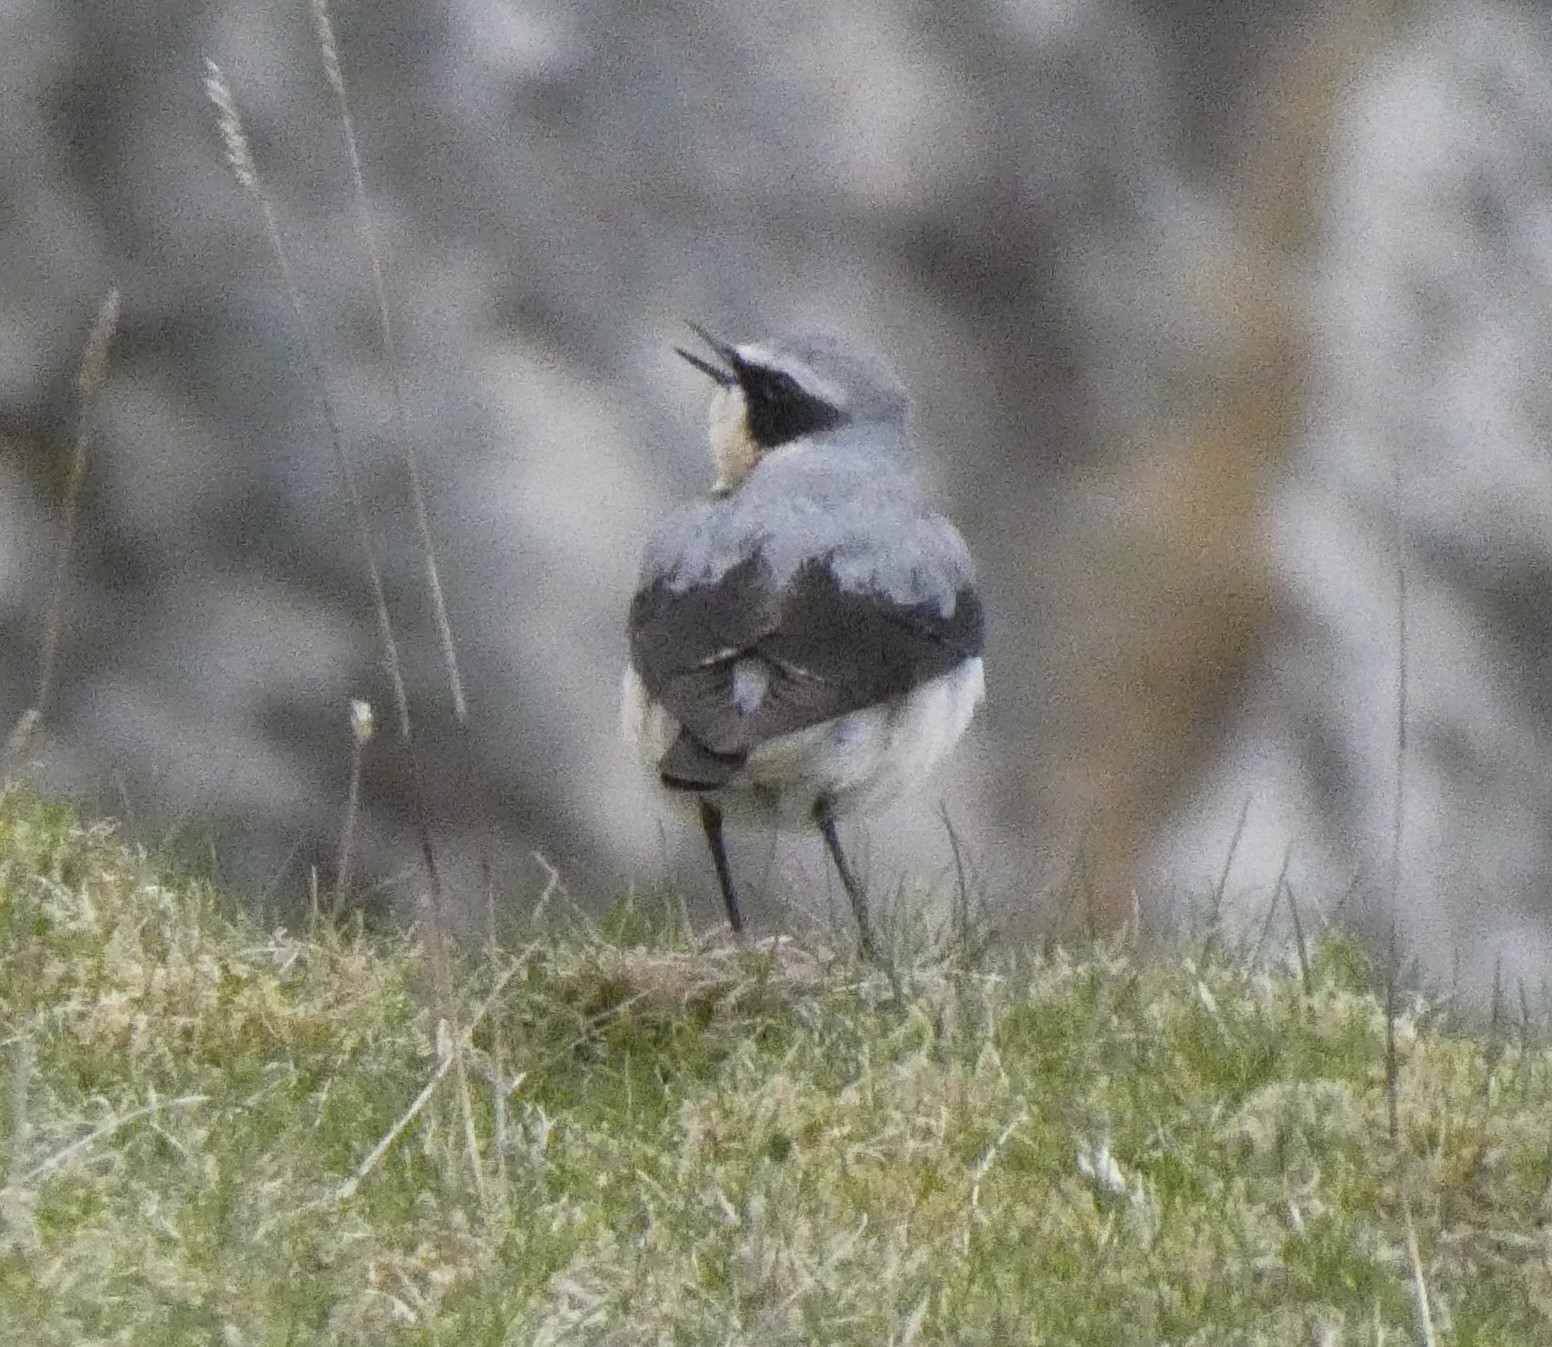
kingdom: Animalia
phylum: Chordata
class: Aves
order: Passeriformes
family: Muscicapidae
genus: Oenanthe
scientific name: Oenanthe oenanthe
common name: Northern wheatear
